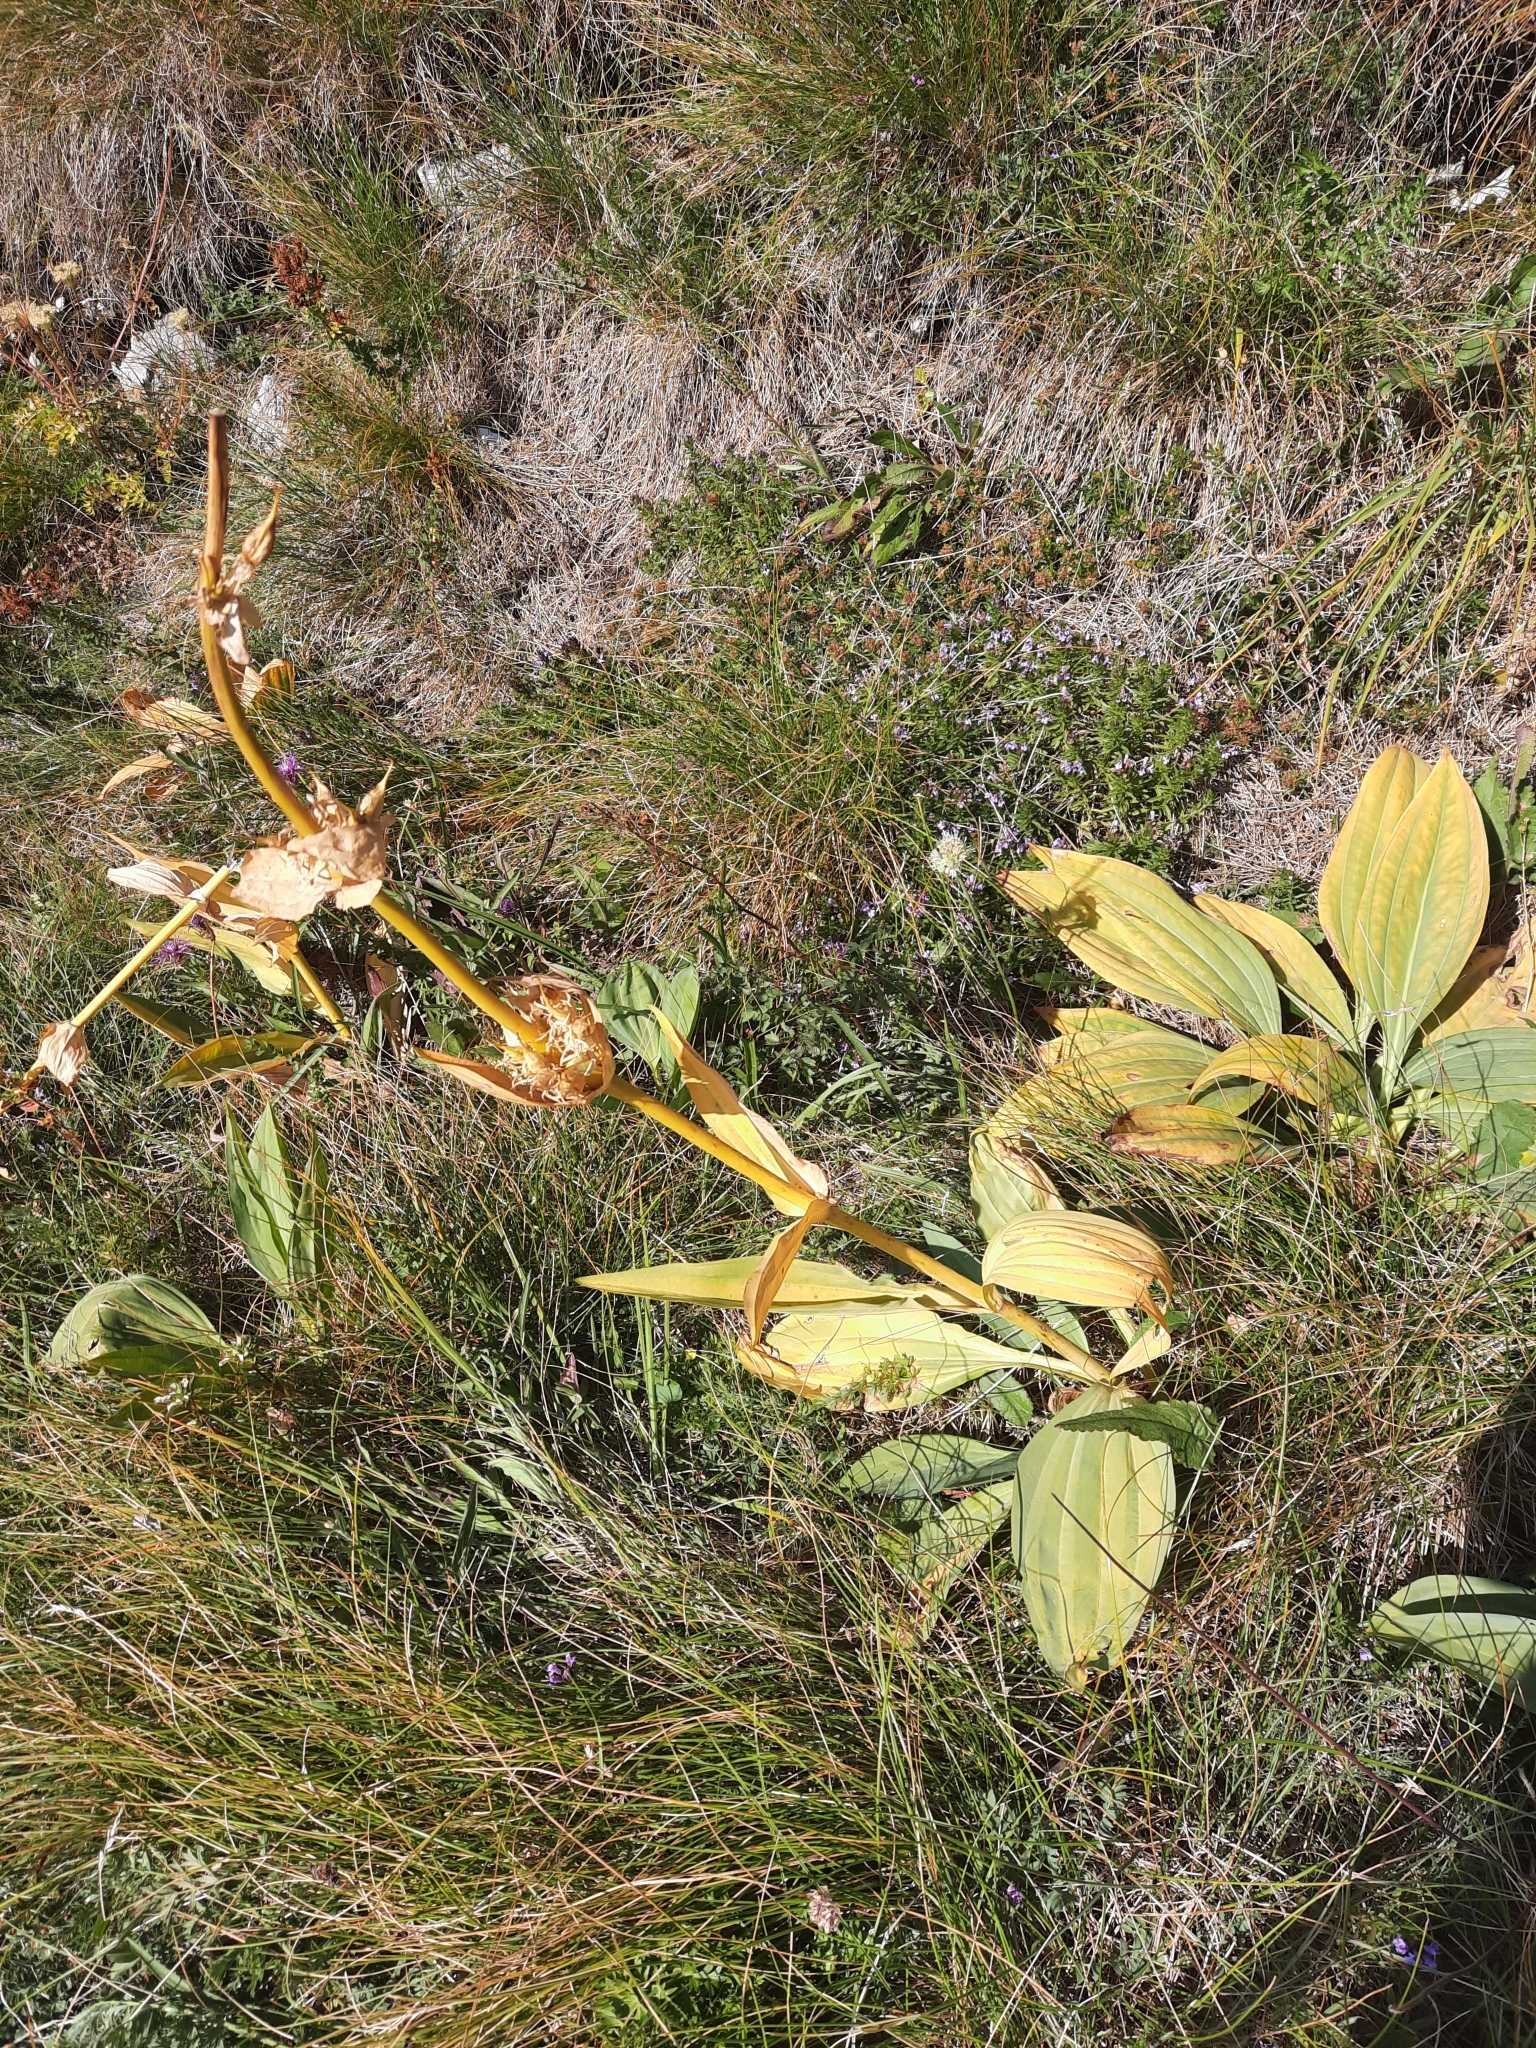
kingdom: Plantae
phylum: Tracheophyta
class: Magnoliopsida
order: Gentianales
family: Gentianaceae
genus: Gentiana
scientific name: Gentiana lutea
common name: Great yellow gentian
